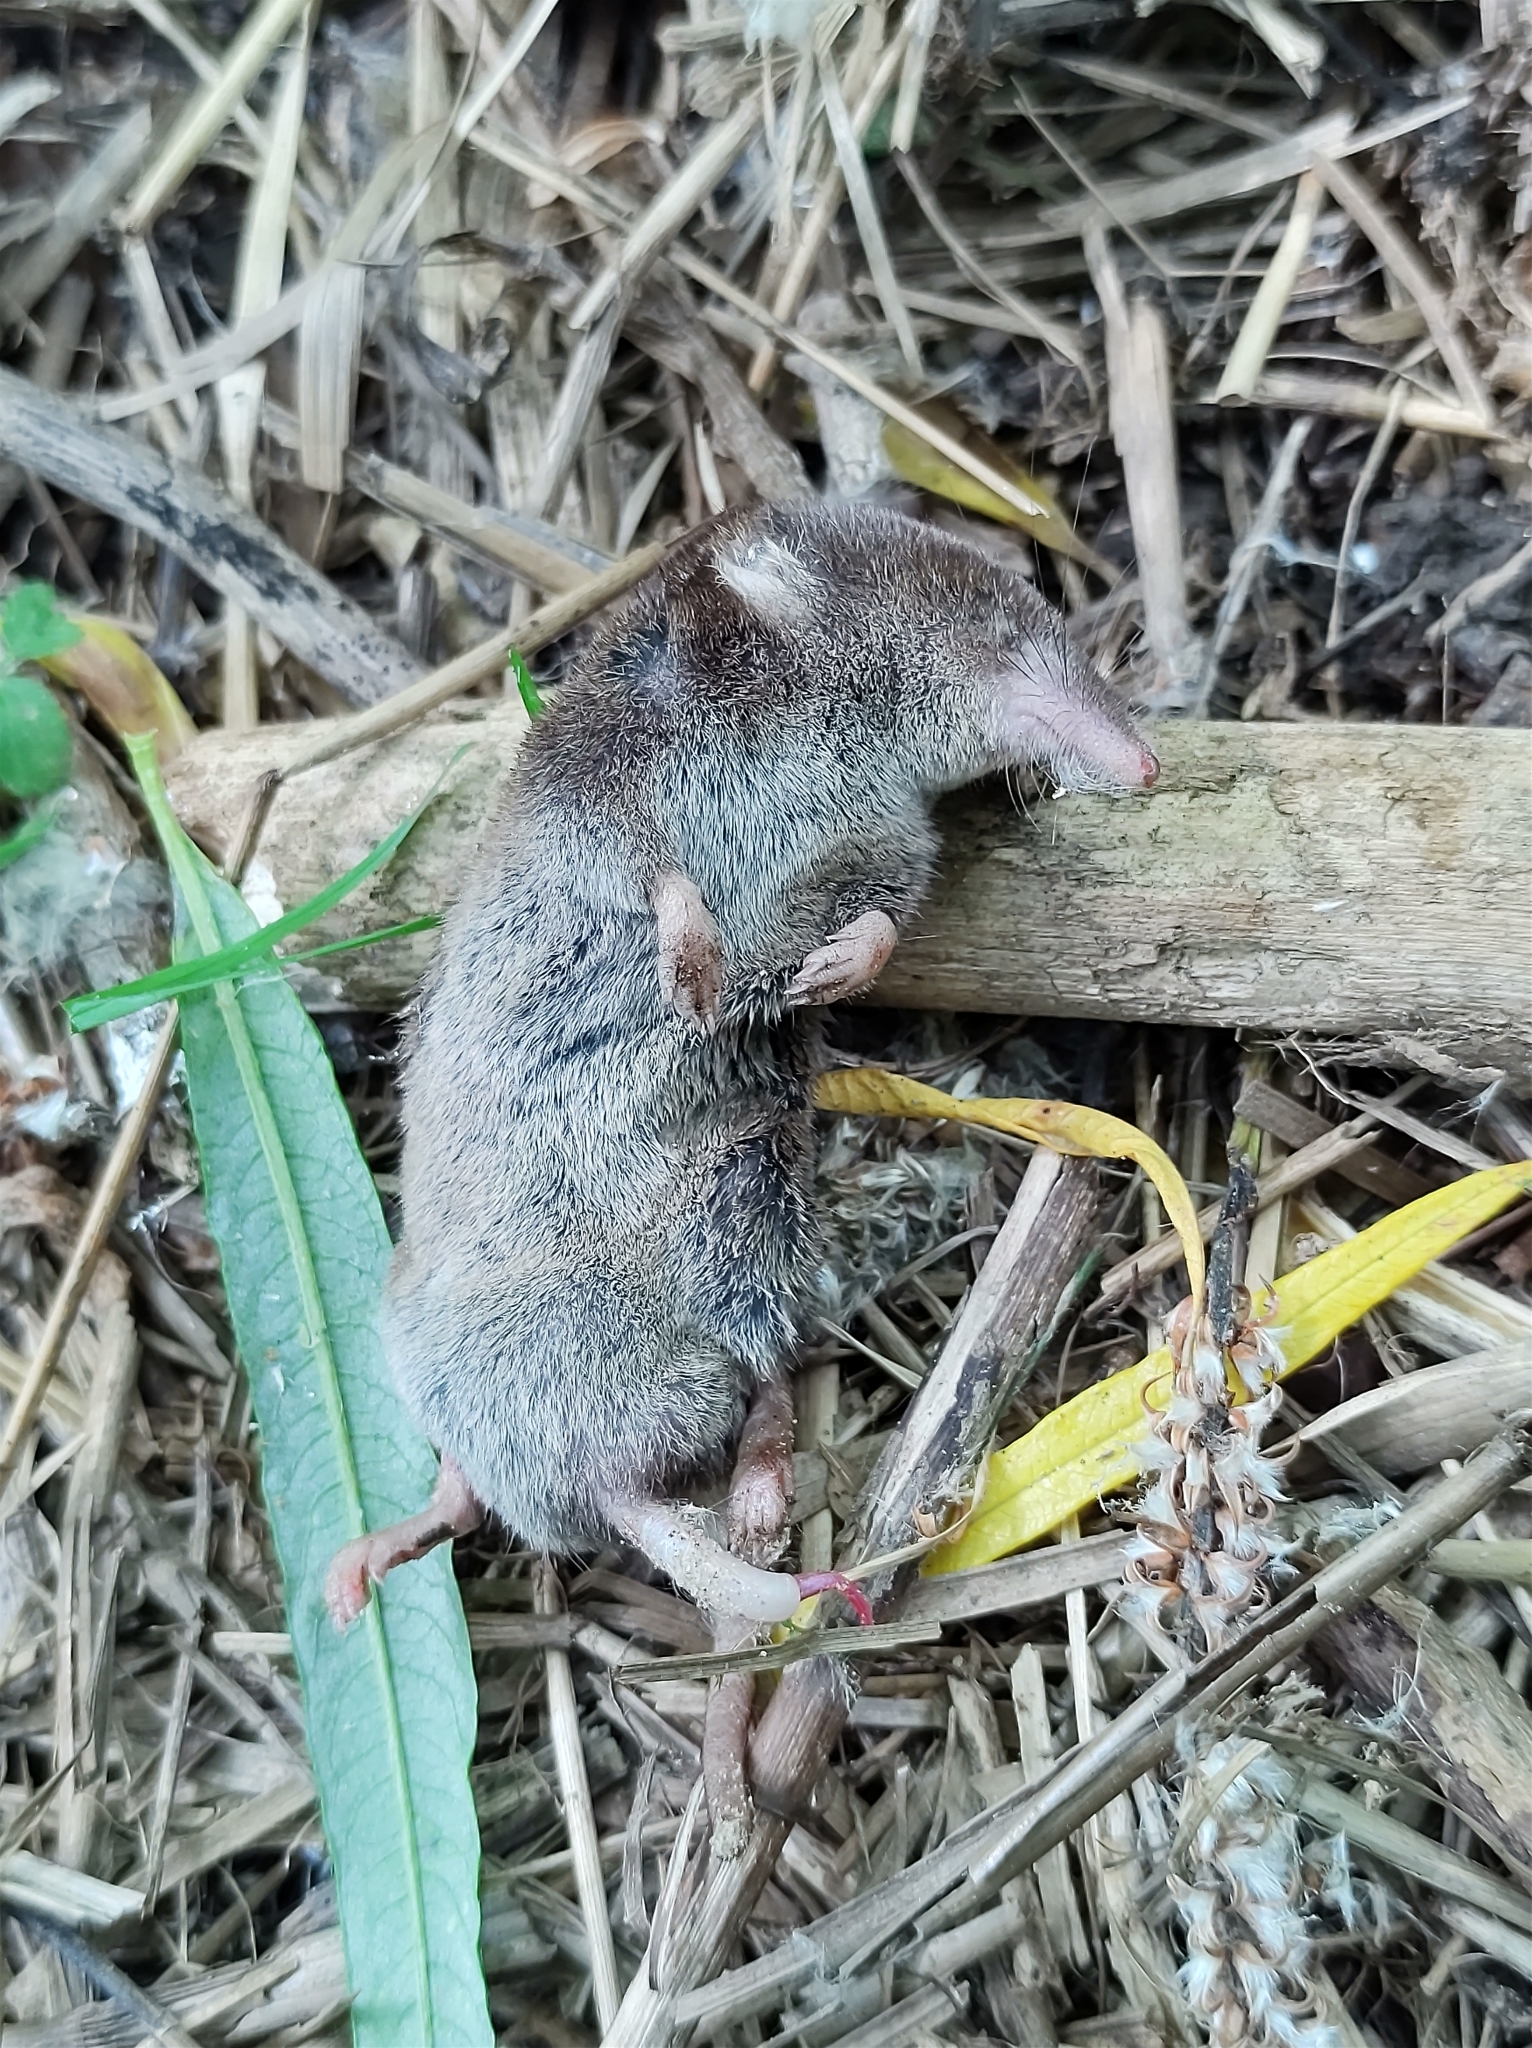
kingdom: Animalia
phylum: Chordata
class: Mammalia
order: Soricomorpha
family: Soricidae
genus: Sorex
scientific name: Sorex araneus
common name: Common shrew
